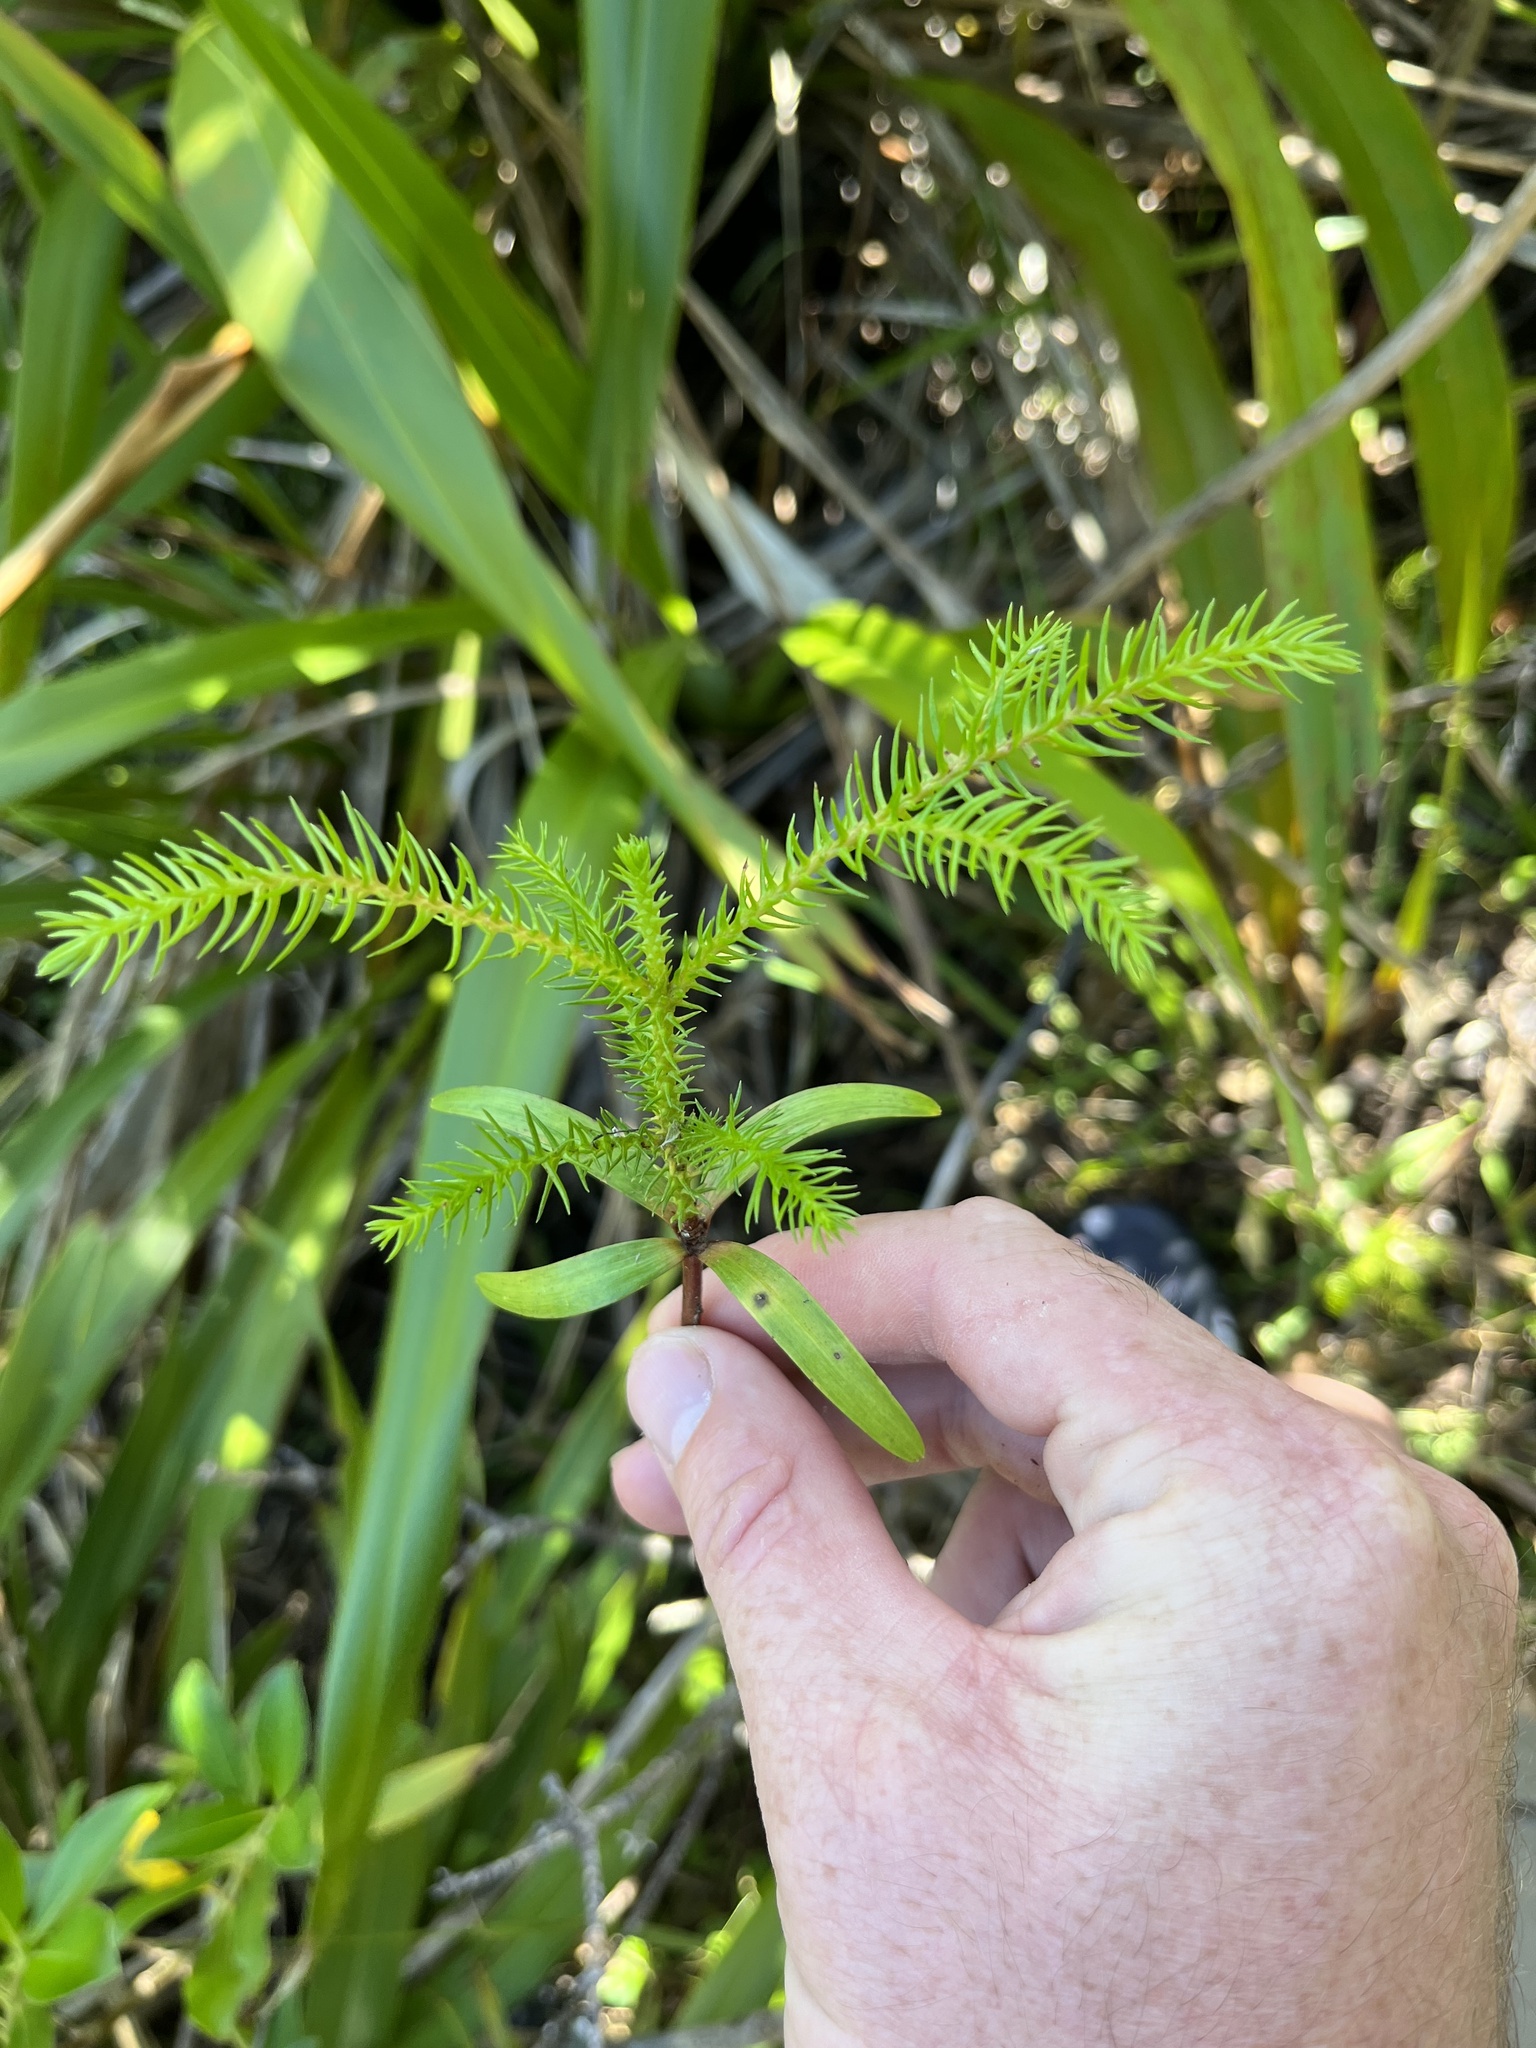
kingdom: Plantae
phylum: Tracheophyta
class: Pinopsida
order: Pinales
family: Araucariaceae
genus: Araucaria
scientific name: Araucaria heterophylla
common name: Norfolk island pine
